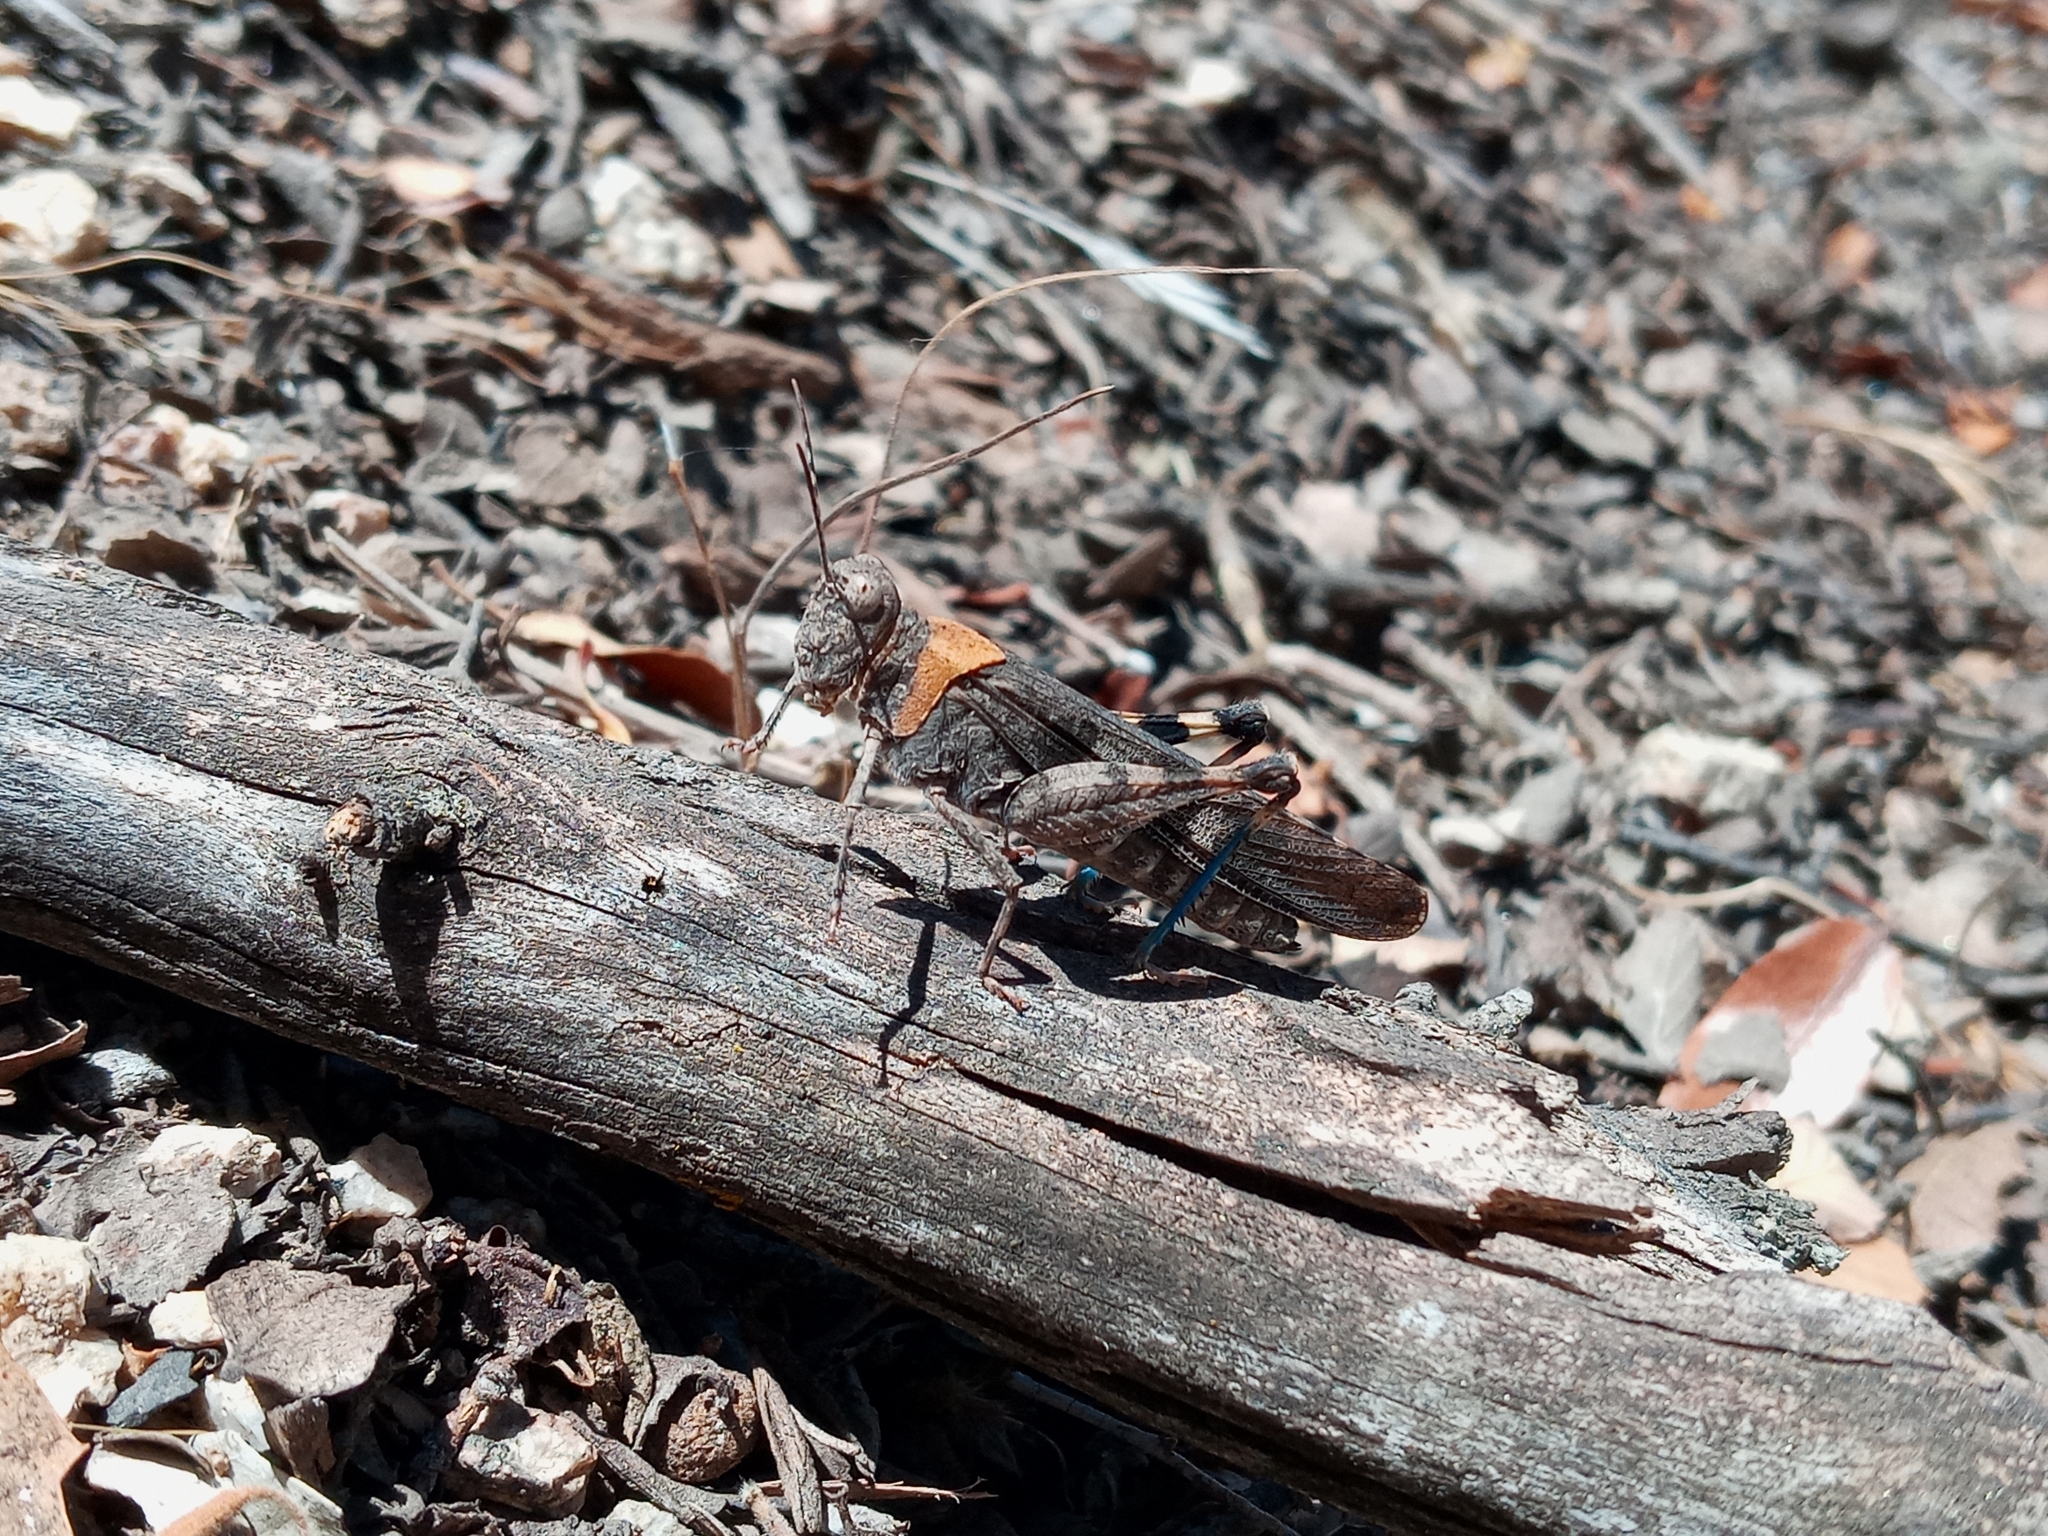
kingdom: Animalia
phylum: Arthropoda
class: Insecta
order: Orthoptera
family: Acrididae
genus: Trimerotropis
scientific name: Trimerotropis fontana
